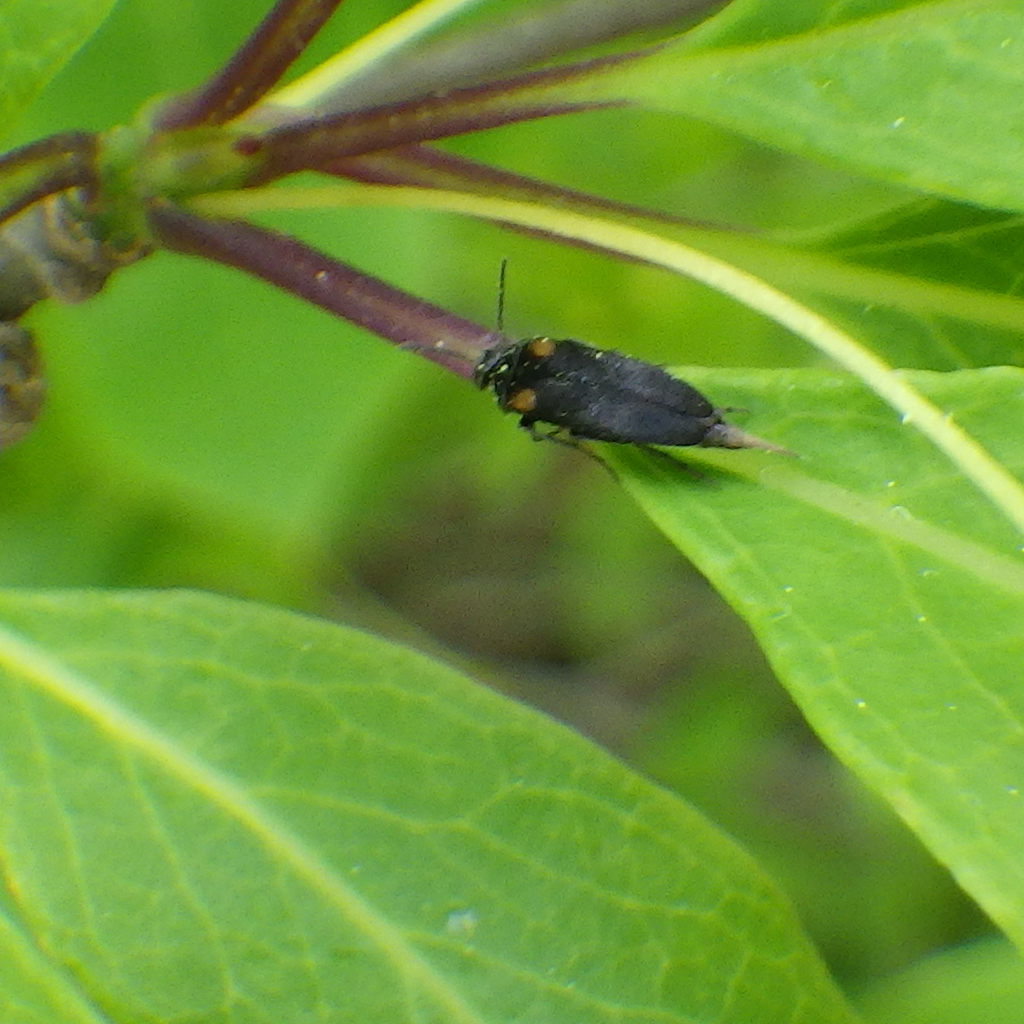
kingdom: Animalia
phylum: Arthropoda
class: Insecta
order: Coleoptera
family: Mordellidae
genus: Mordellochroa
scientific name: Mordellochroa scapularis
